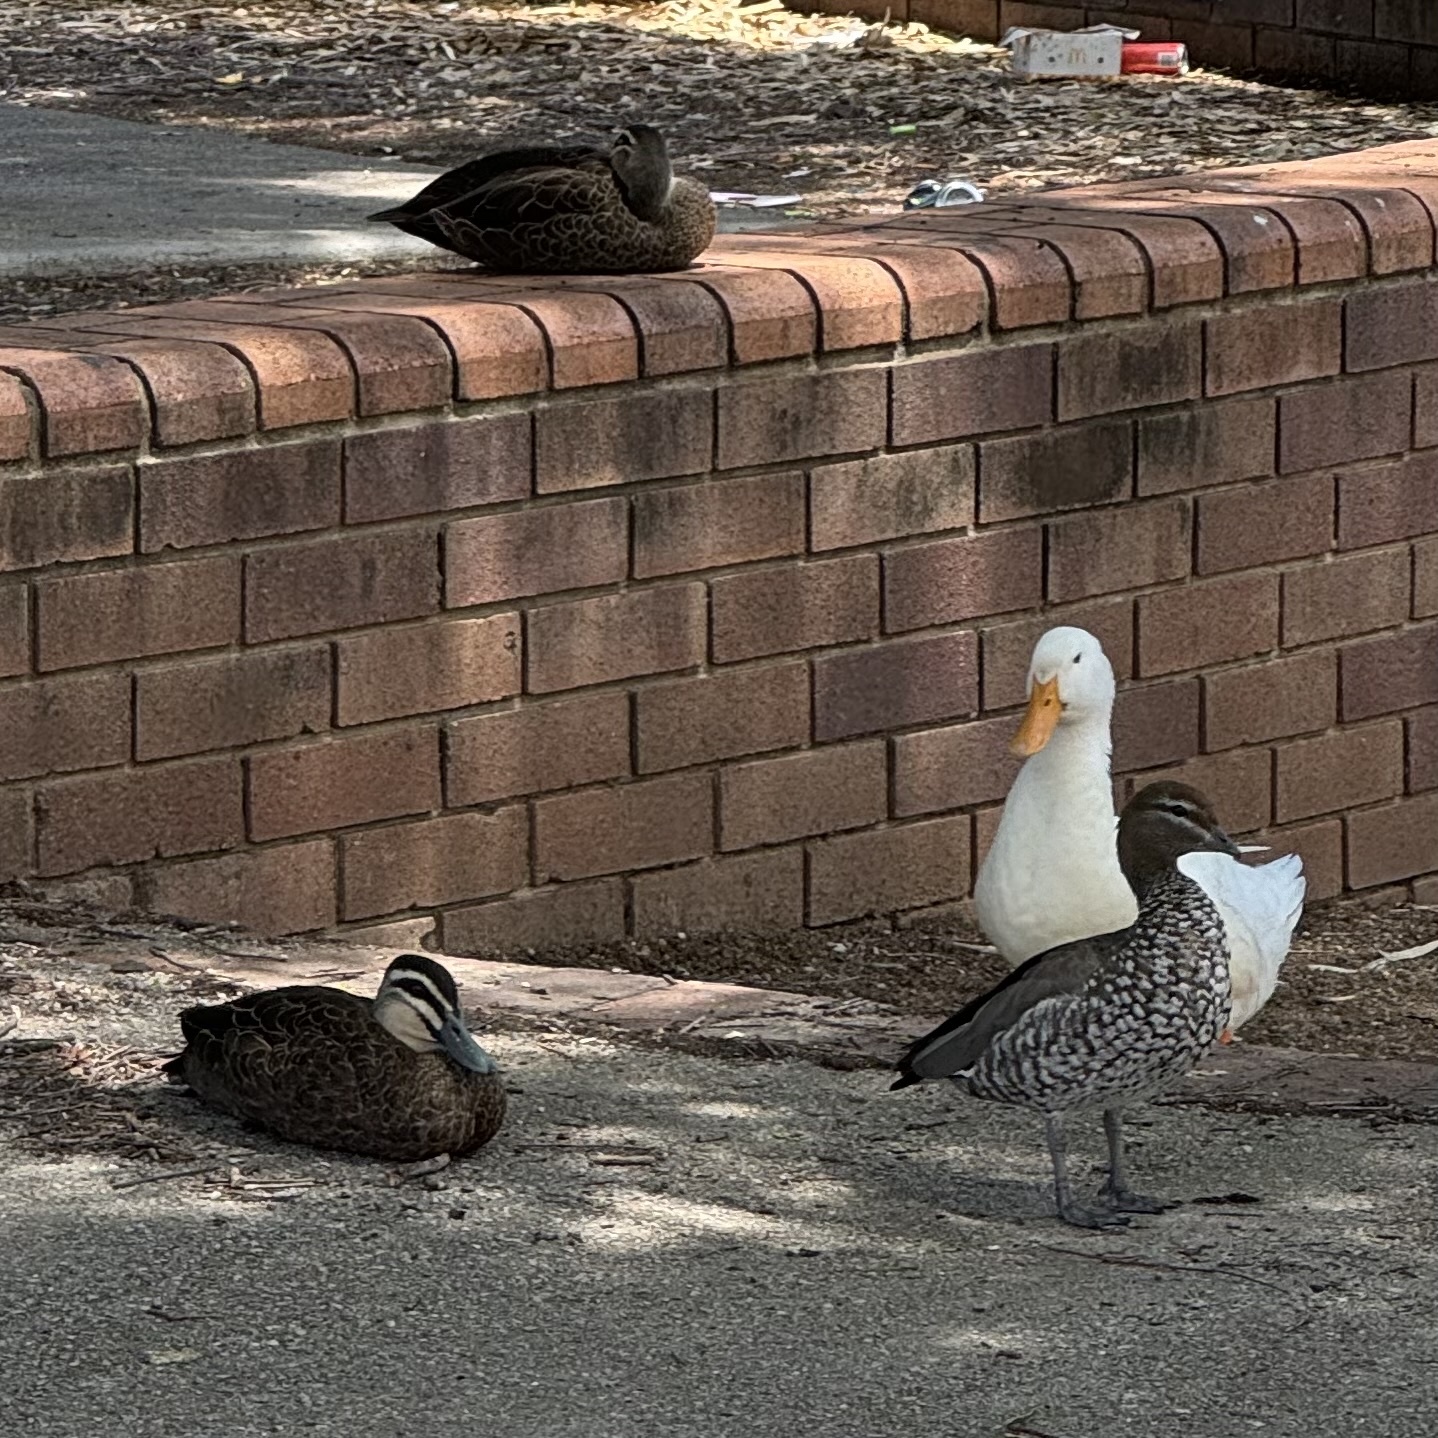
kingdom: Animalia
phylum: Chordata
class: Aves
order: Anseriformes
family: Anatidae
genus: Chenonetta
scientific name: Chenonetta jubata
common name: Maned duck
